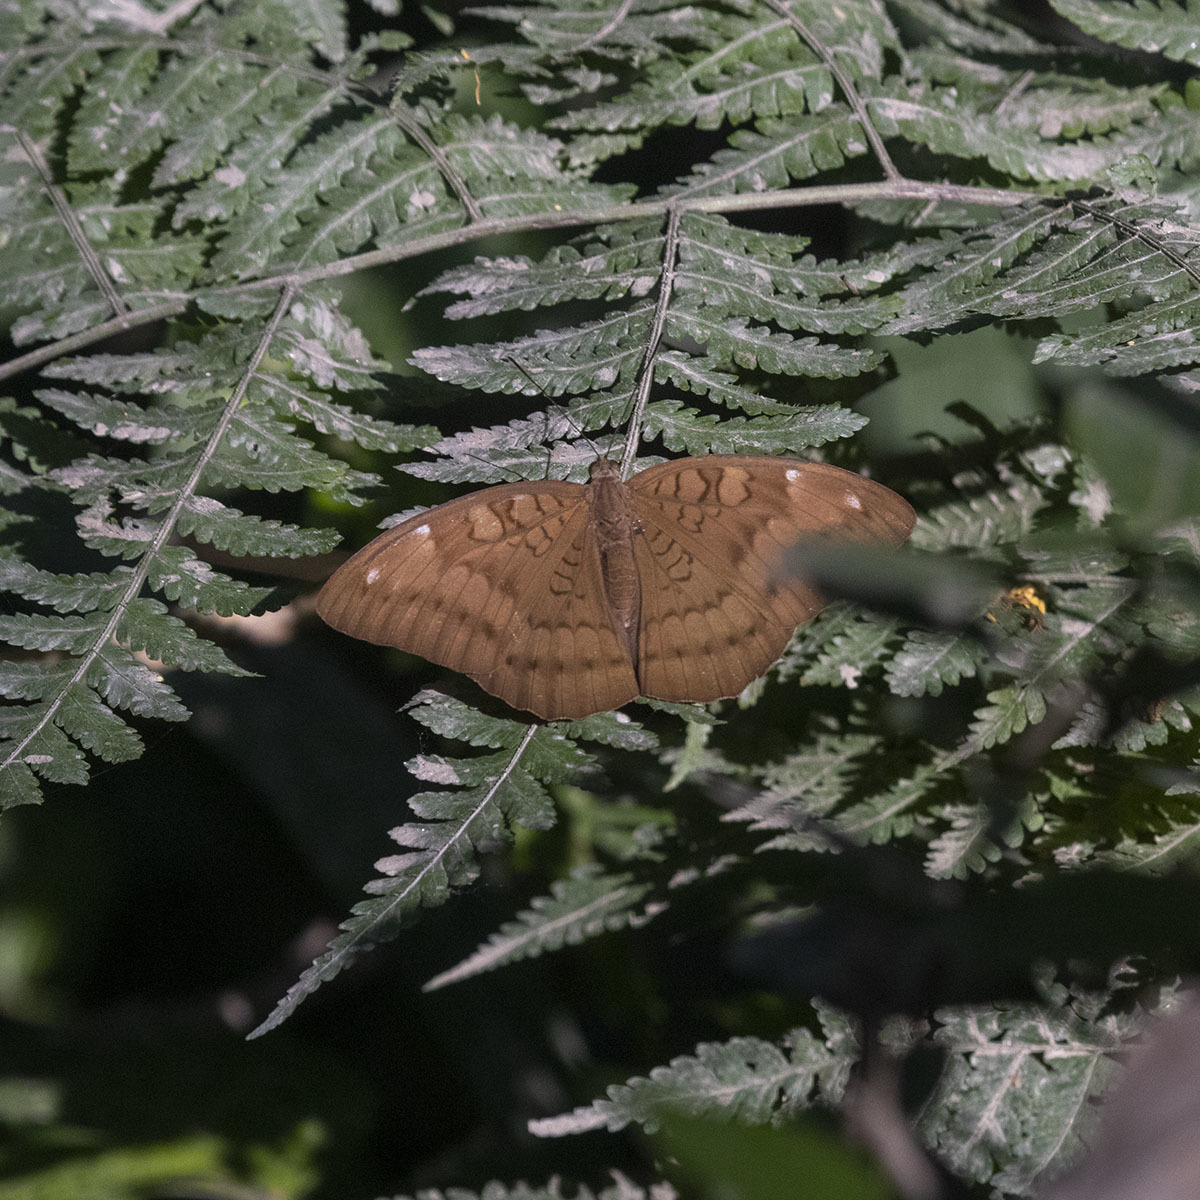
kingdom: Animalia
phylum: Arthropoda
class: Insecta
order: Lepidoptera
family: Nymphalidae
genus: Tanaecia
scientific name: Tanaecia julii
